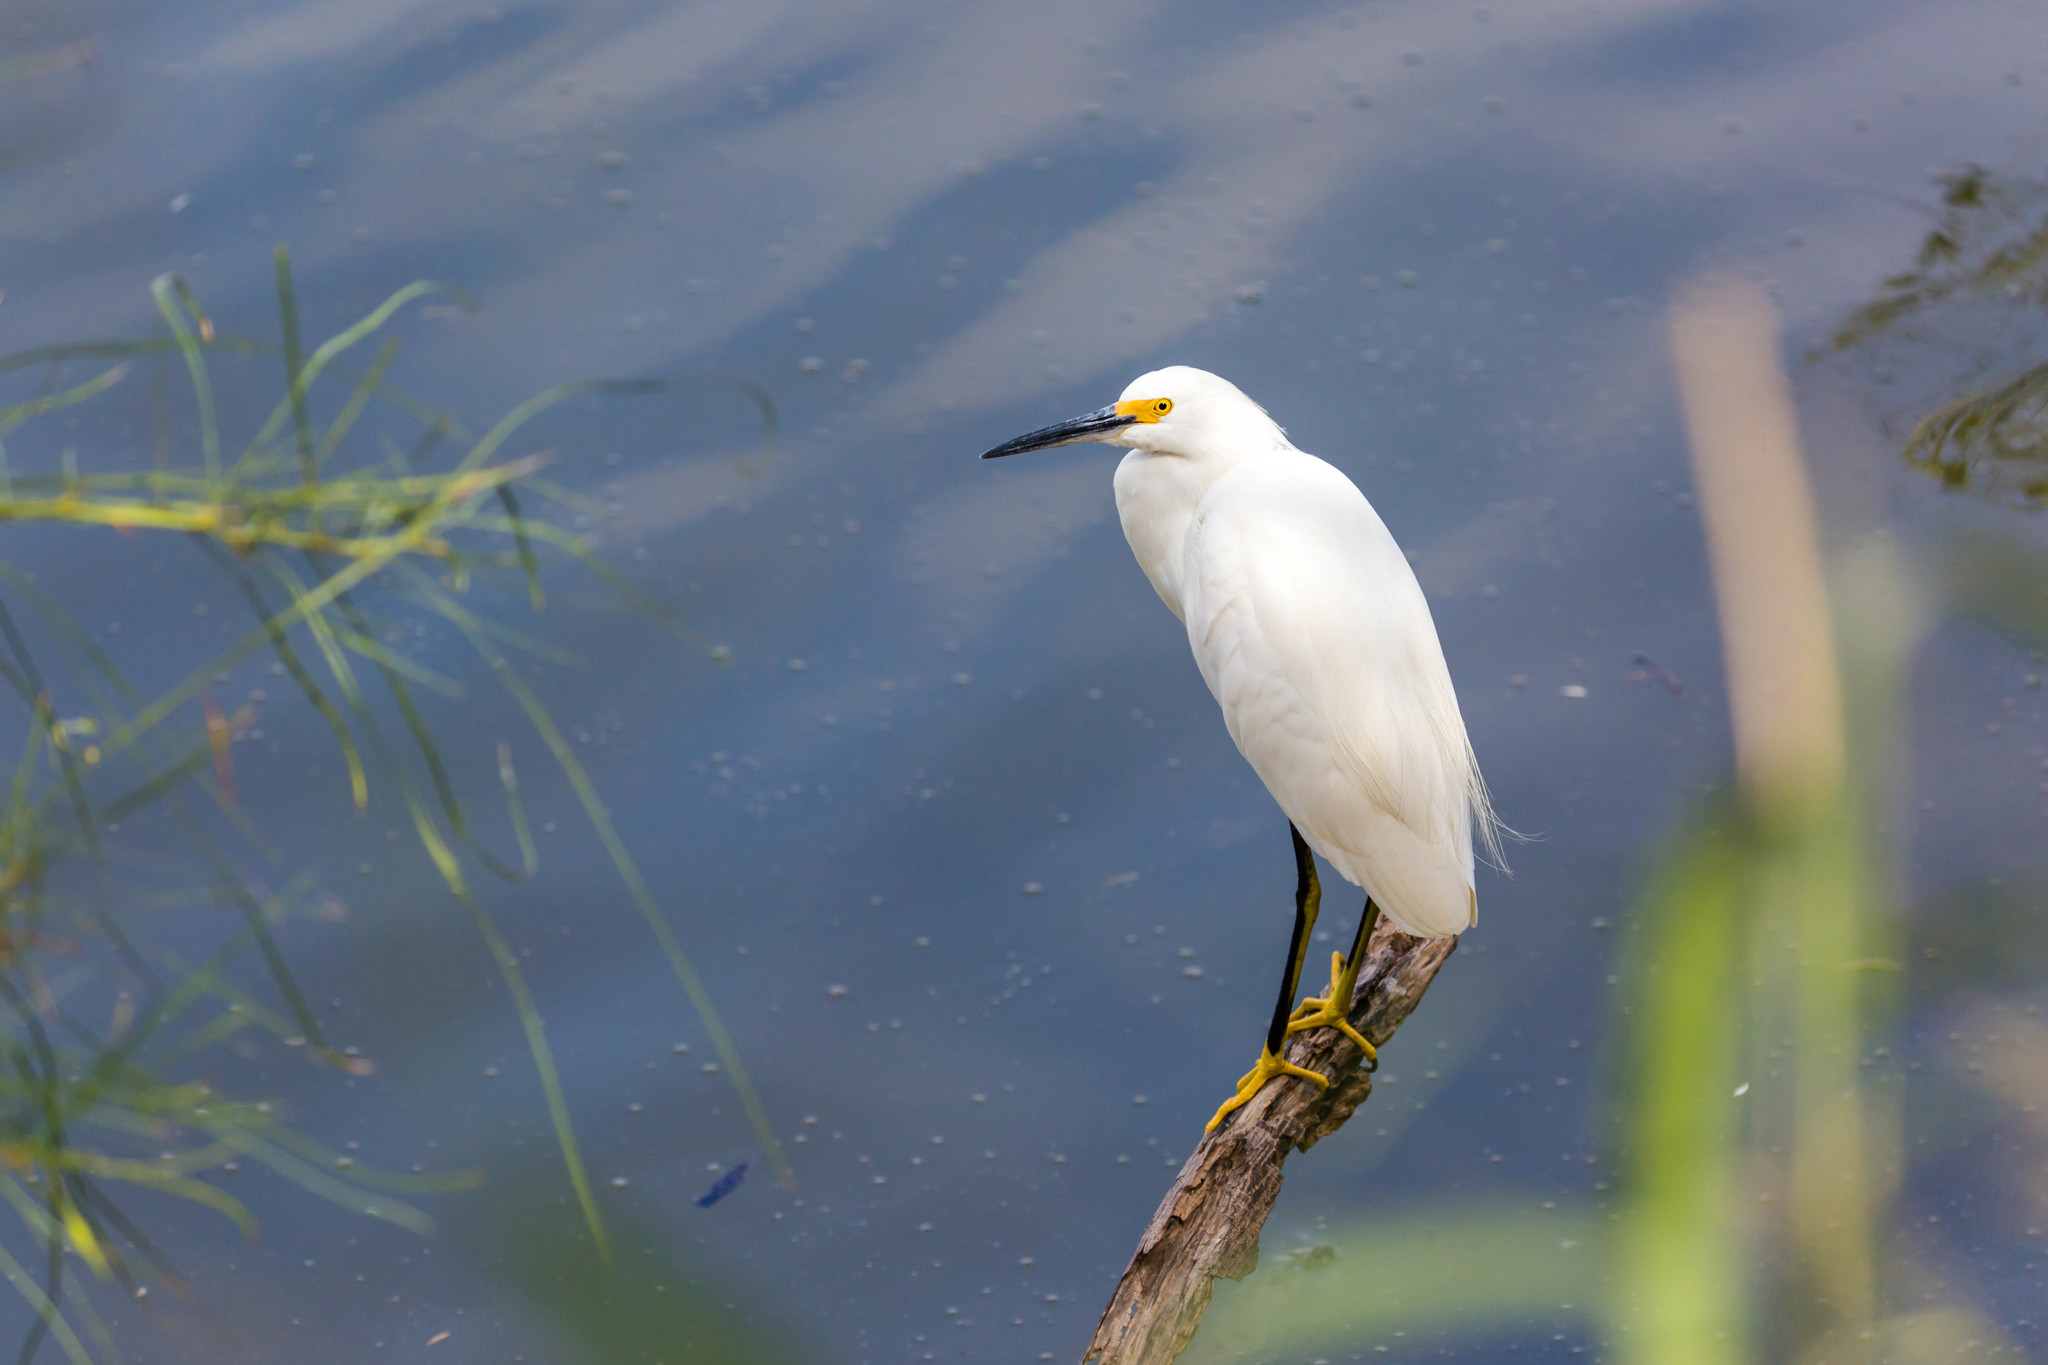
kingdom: Animalia
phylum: Chordata
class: Aves
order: Pelecaniformes
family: Ardeidae
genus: Egretta
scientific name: Egretta thula
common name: Snowy egret
